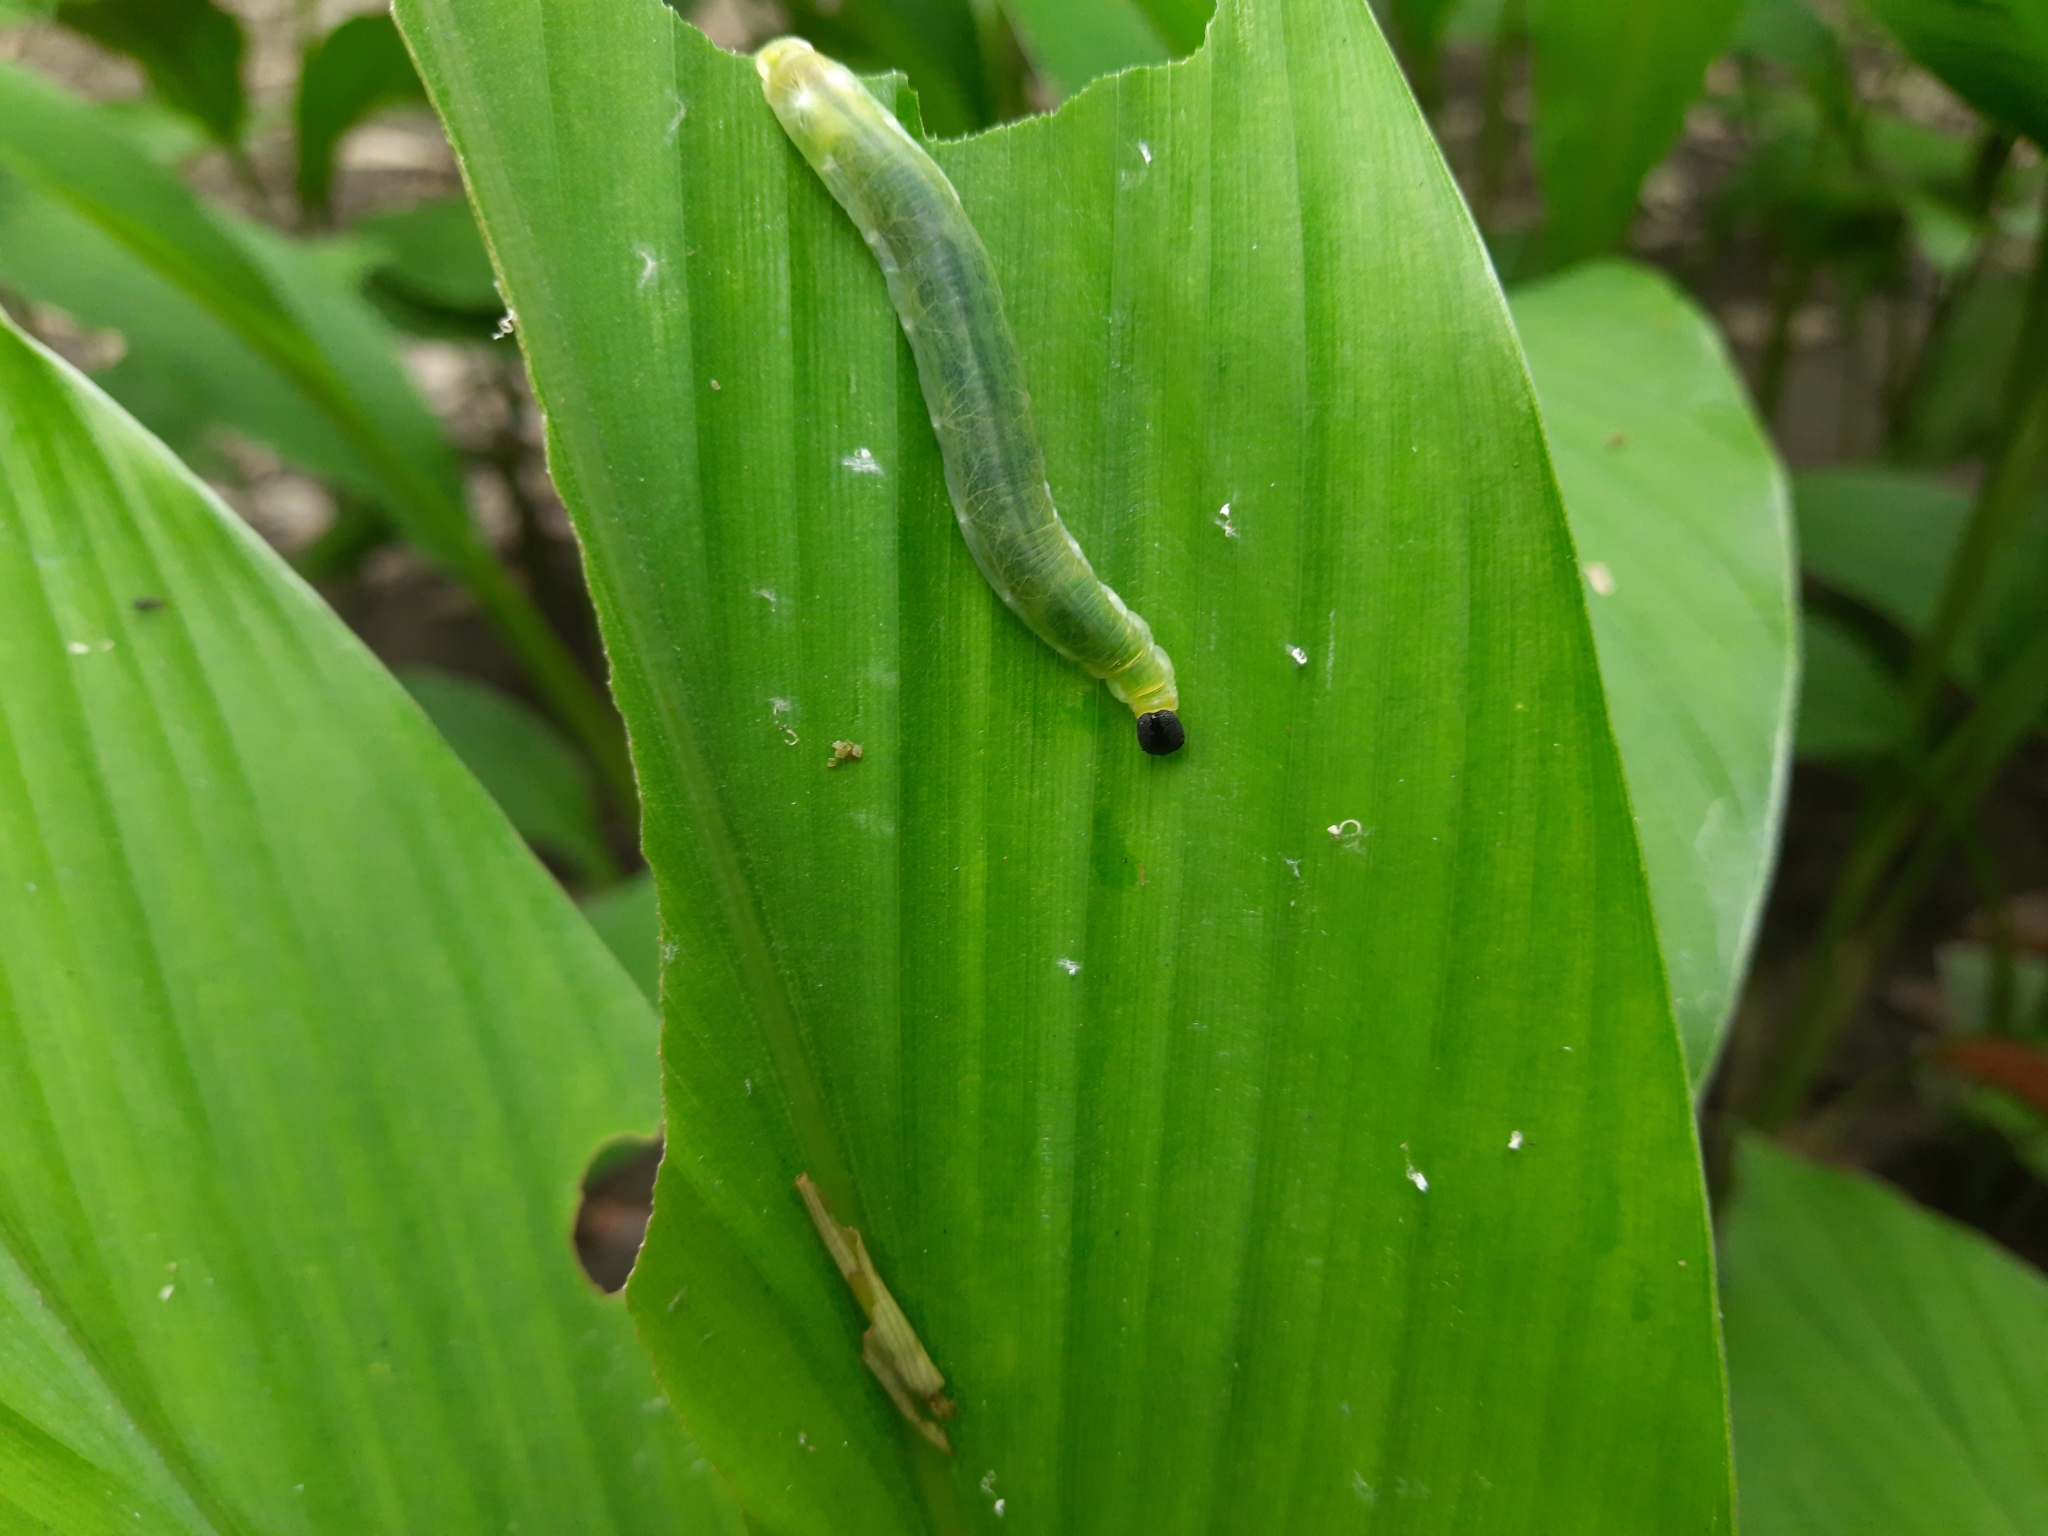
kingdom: Animalia
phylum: Arthropoda
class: Insecta
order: Lepidoptera
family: Hesperiidae
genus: Udaspes
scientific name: Udaspes folus
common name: Grass demon
